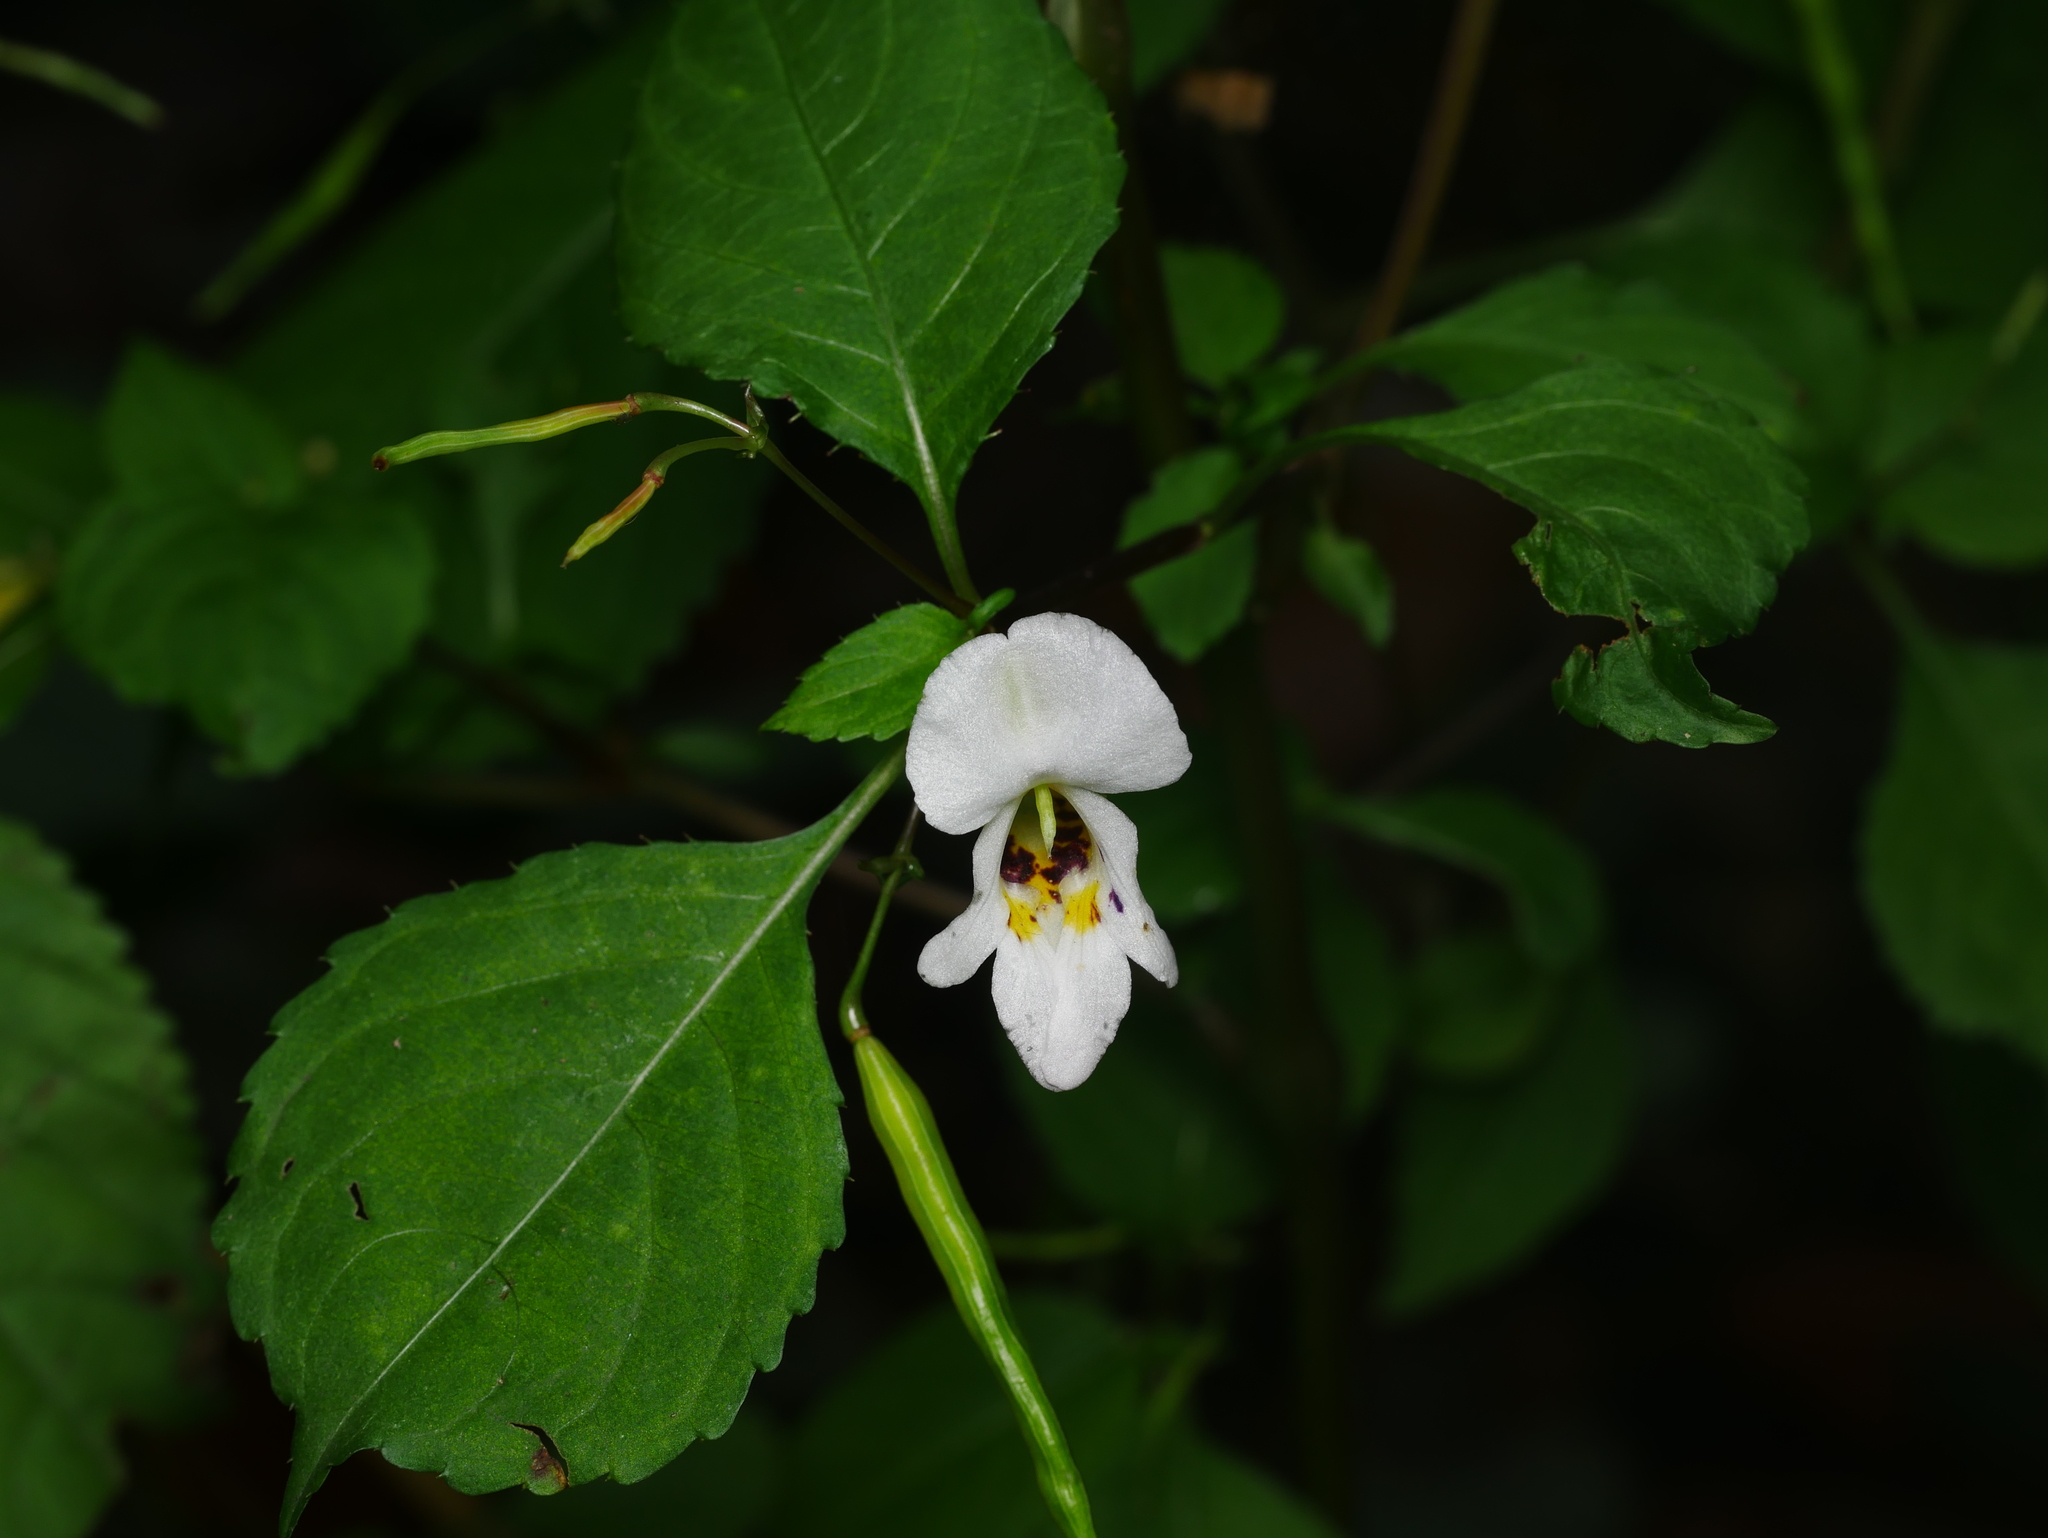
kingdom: Plantae
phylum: Tracheophyta
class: Magnoliopsida
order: Ericales
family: Balsaminaceae
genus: Impatiens
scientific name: Impatiens edgeworthii
